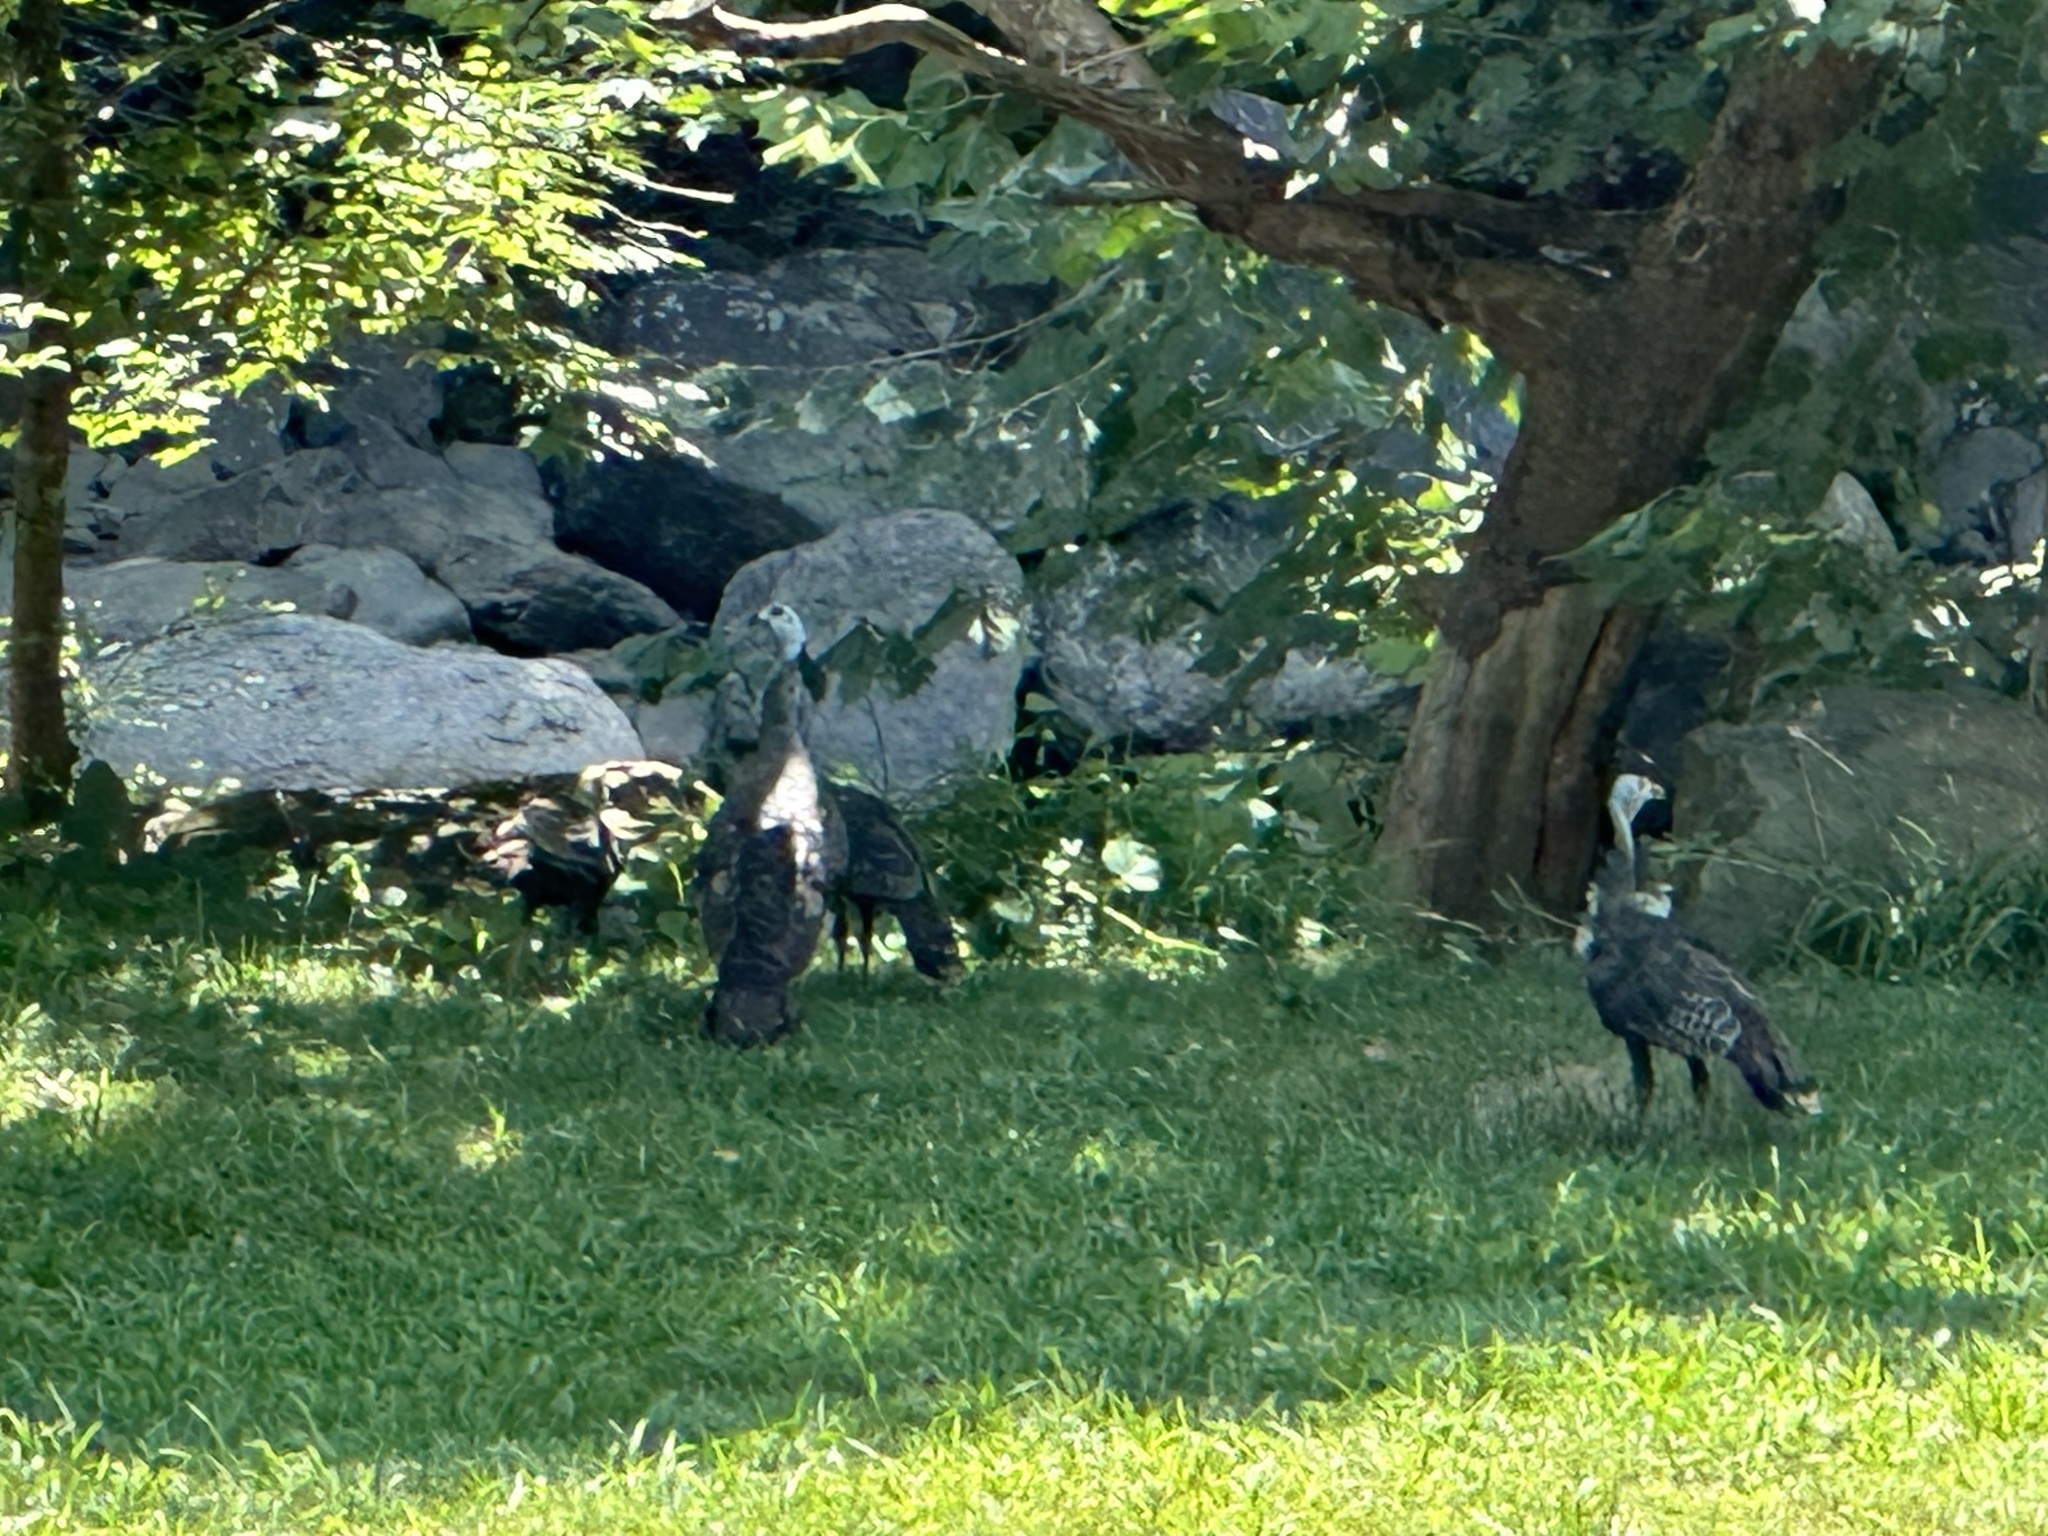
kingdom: Animalia
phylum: Chordata
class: Aves
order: Galliformes
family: Phasianidae
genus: Meleagris
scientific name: Meleagris gallopavo
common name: Wild turkey
